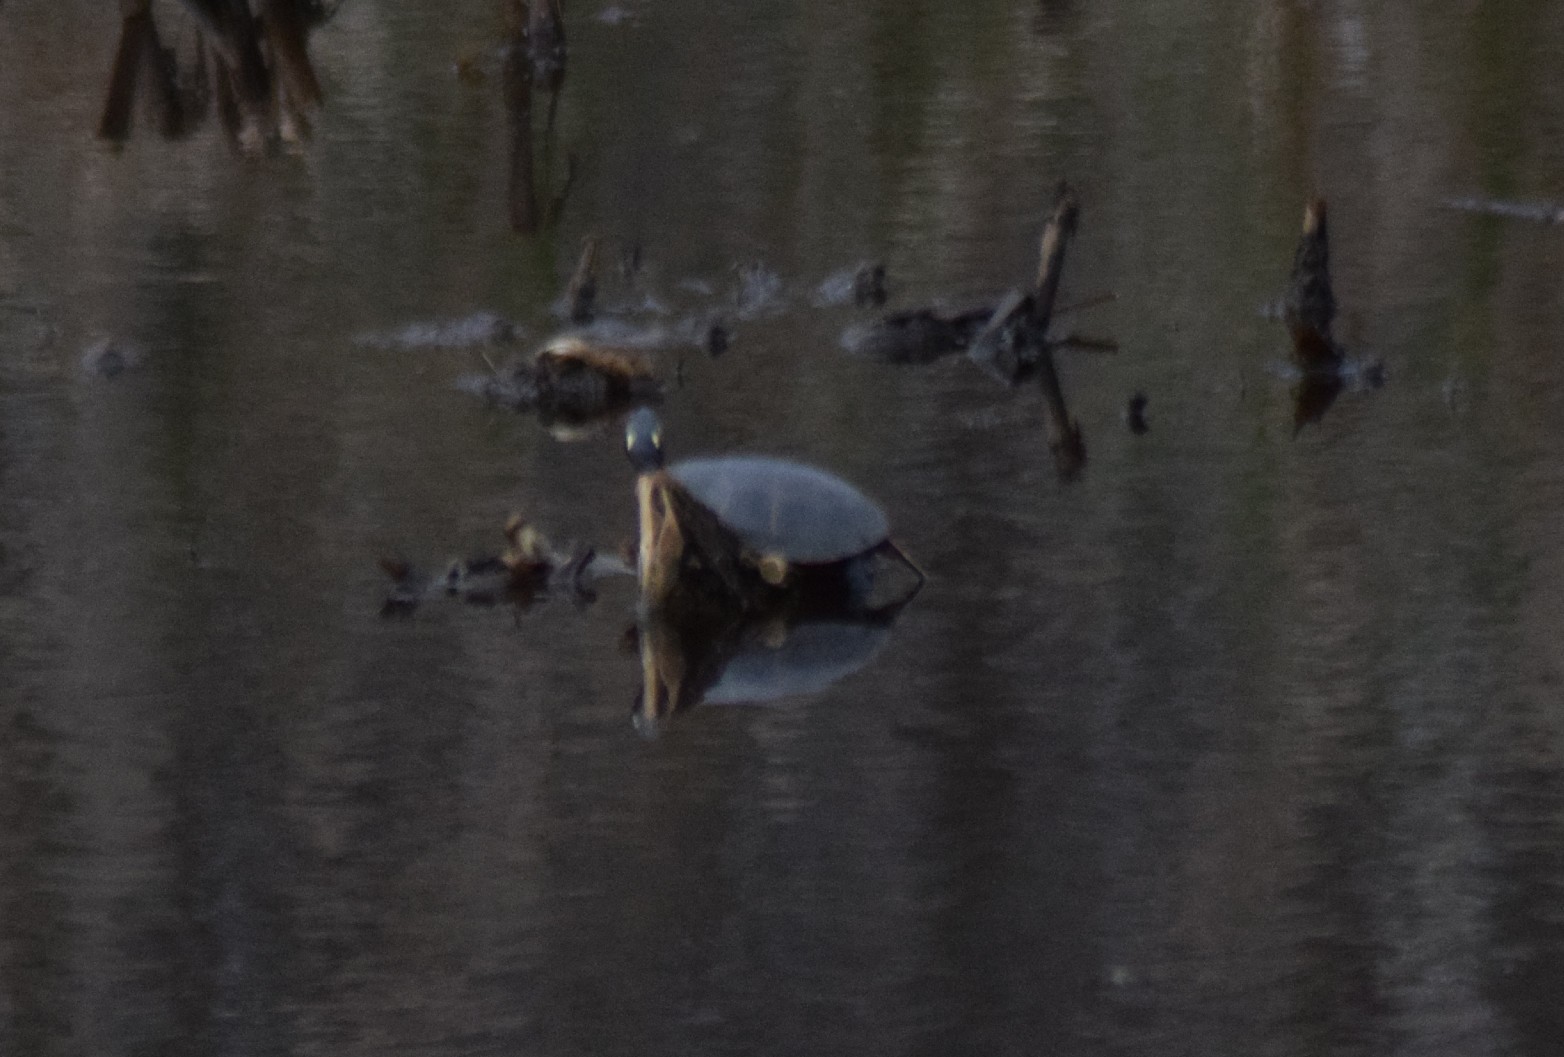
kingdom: Animalia
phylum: Chordata
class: Testudines
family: Emydidae
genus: Chrysemys
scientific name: Chrysemys picta
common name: Painted turtle
